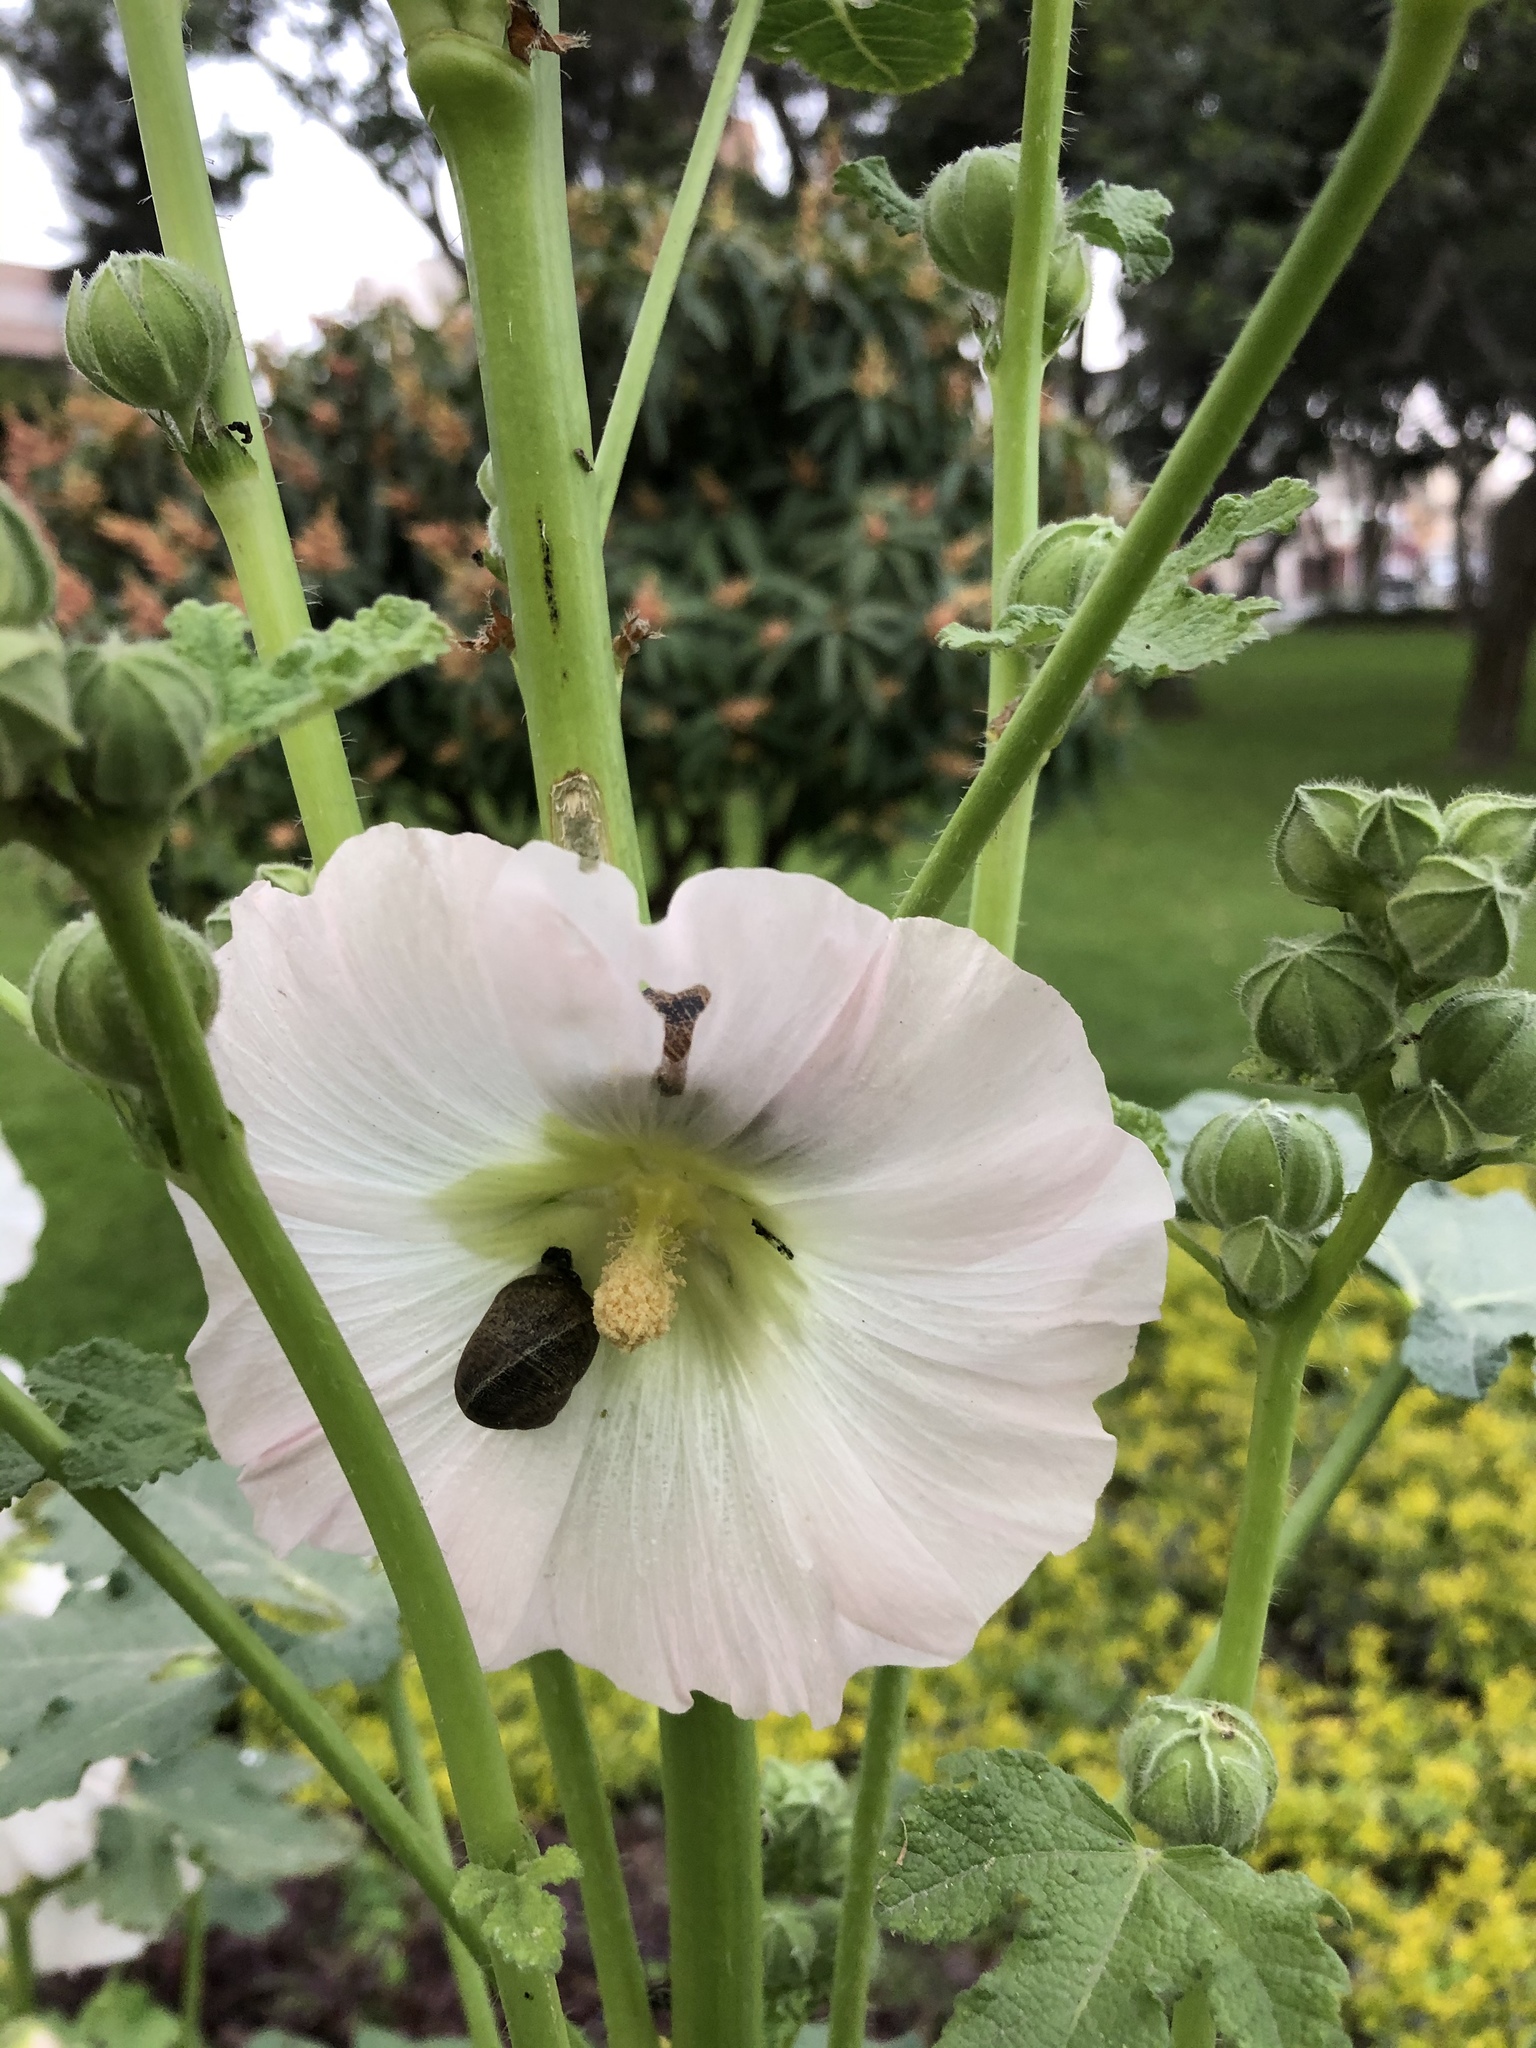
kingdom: Animalia
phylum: Mollusca
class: Gastropoda
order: Stylommatophora
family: Helicidae
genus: Cornu
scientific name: Cornu aspersum
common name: Brown garden snail
